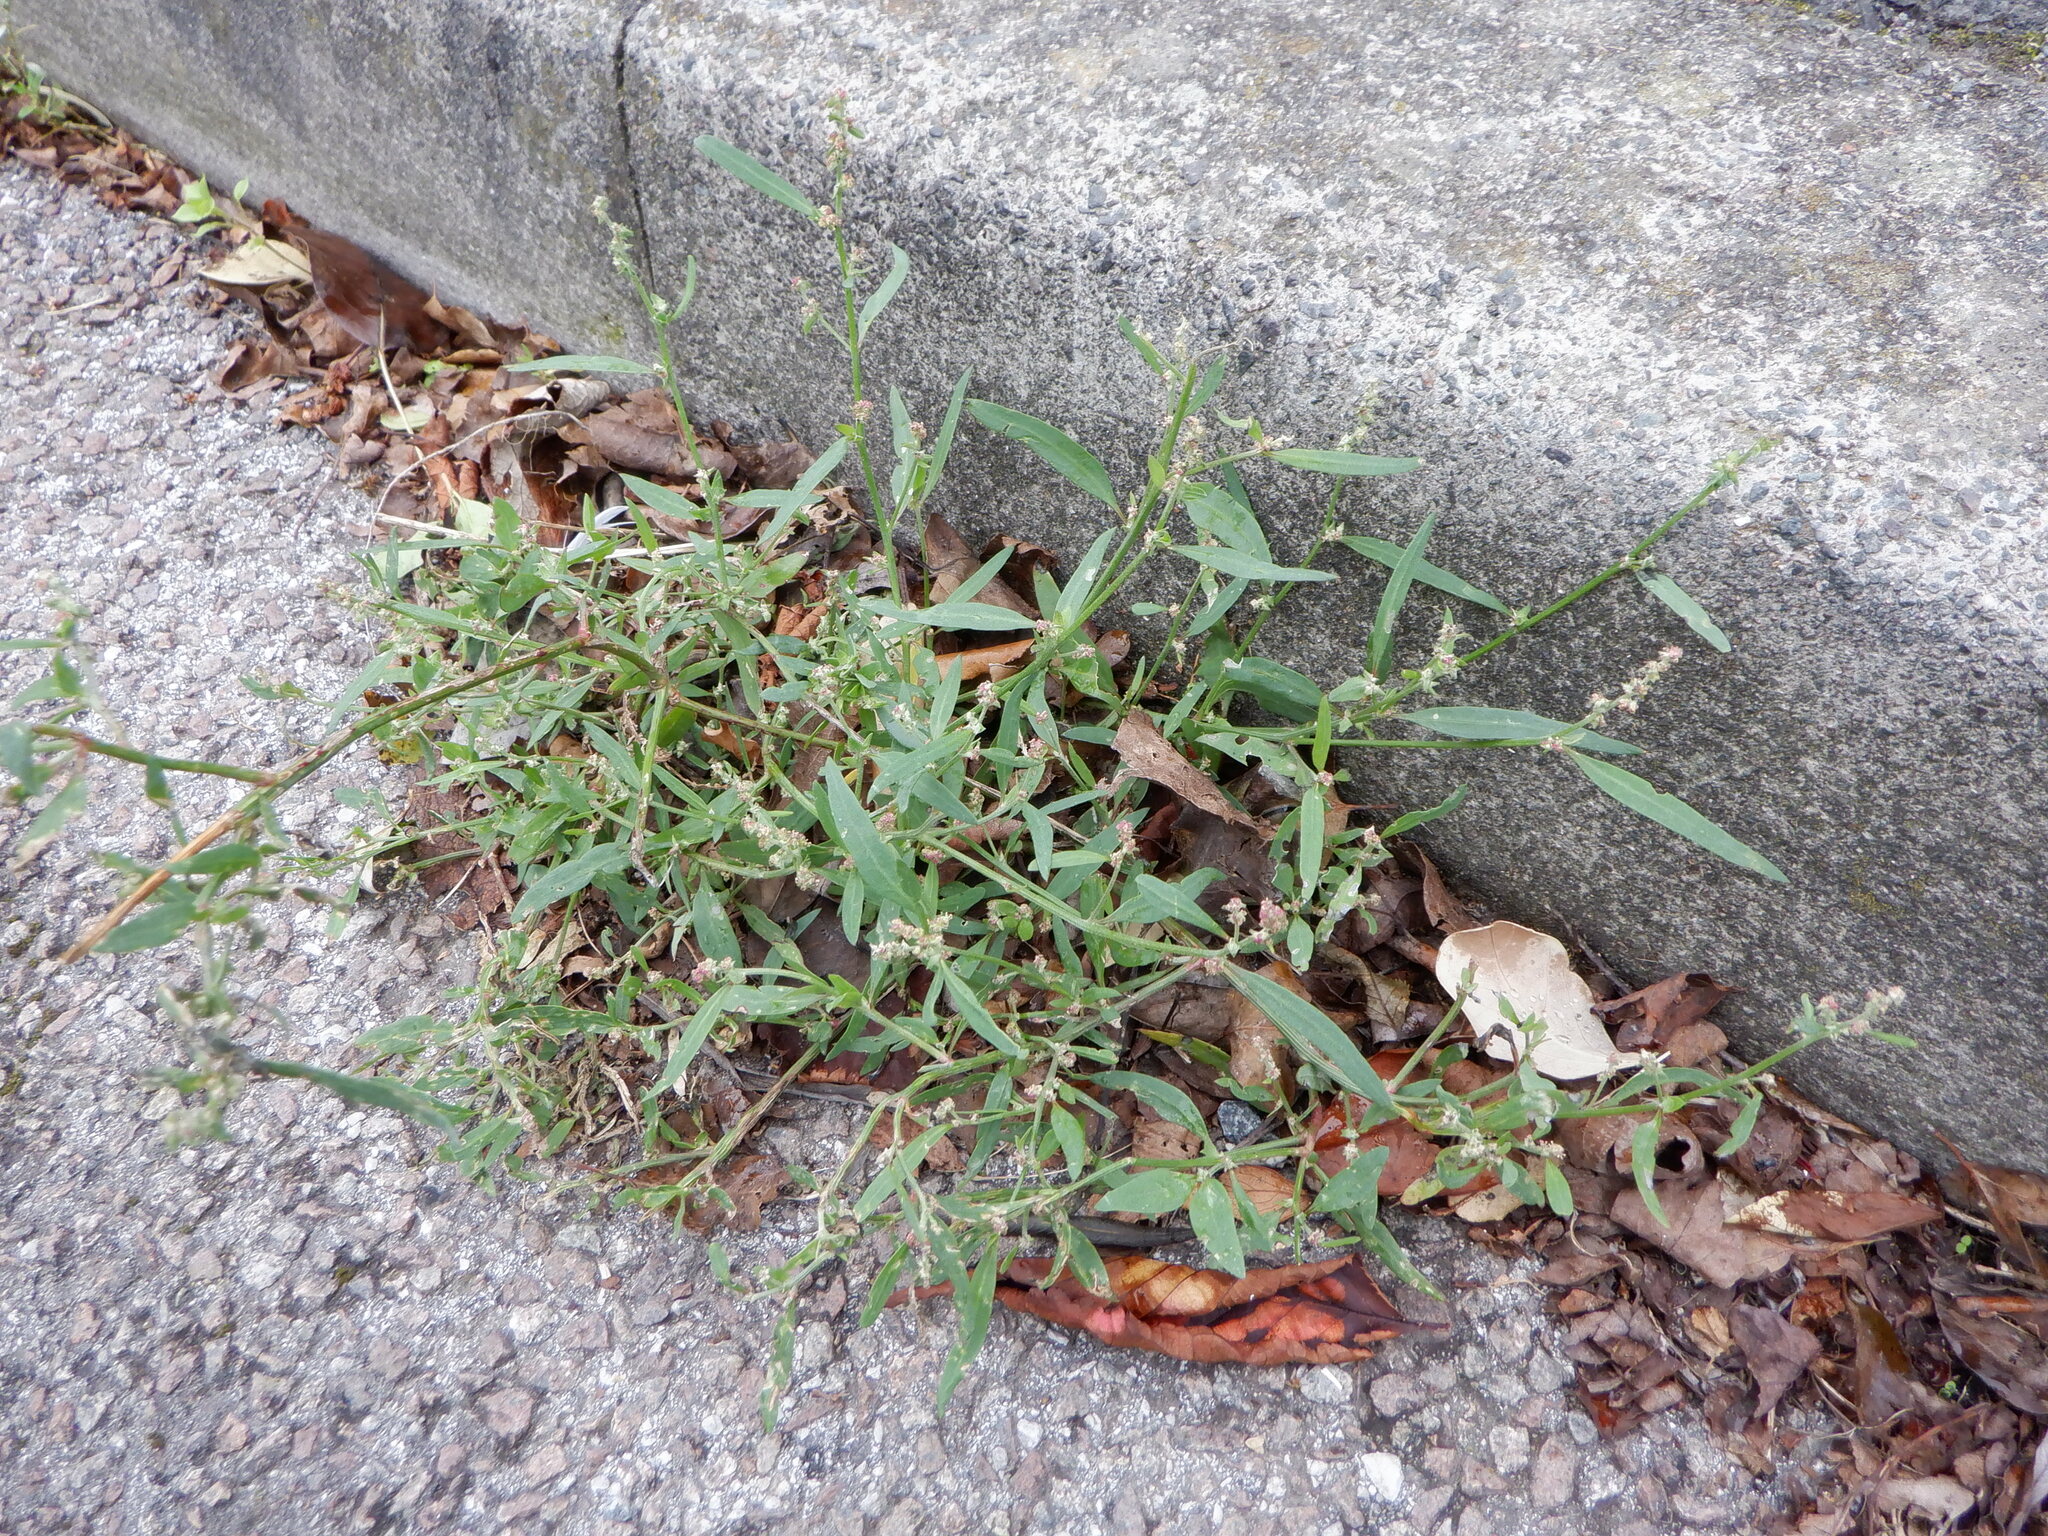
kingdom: Plantae
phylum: Tracheophyta
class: Magnoliopsida
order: Caryophyllales
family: Amaranthaceae
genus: Atriplex
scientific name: Atriplex patula
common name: Common orache
